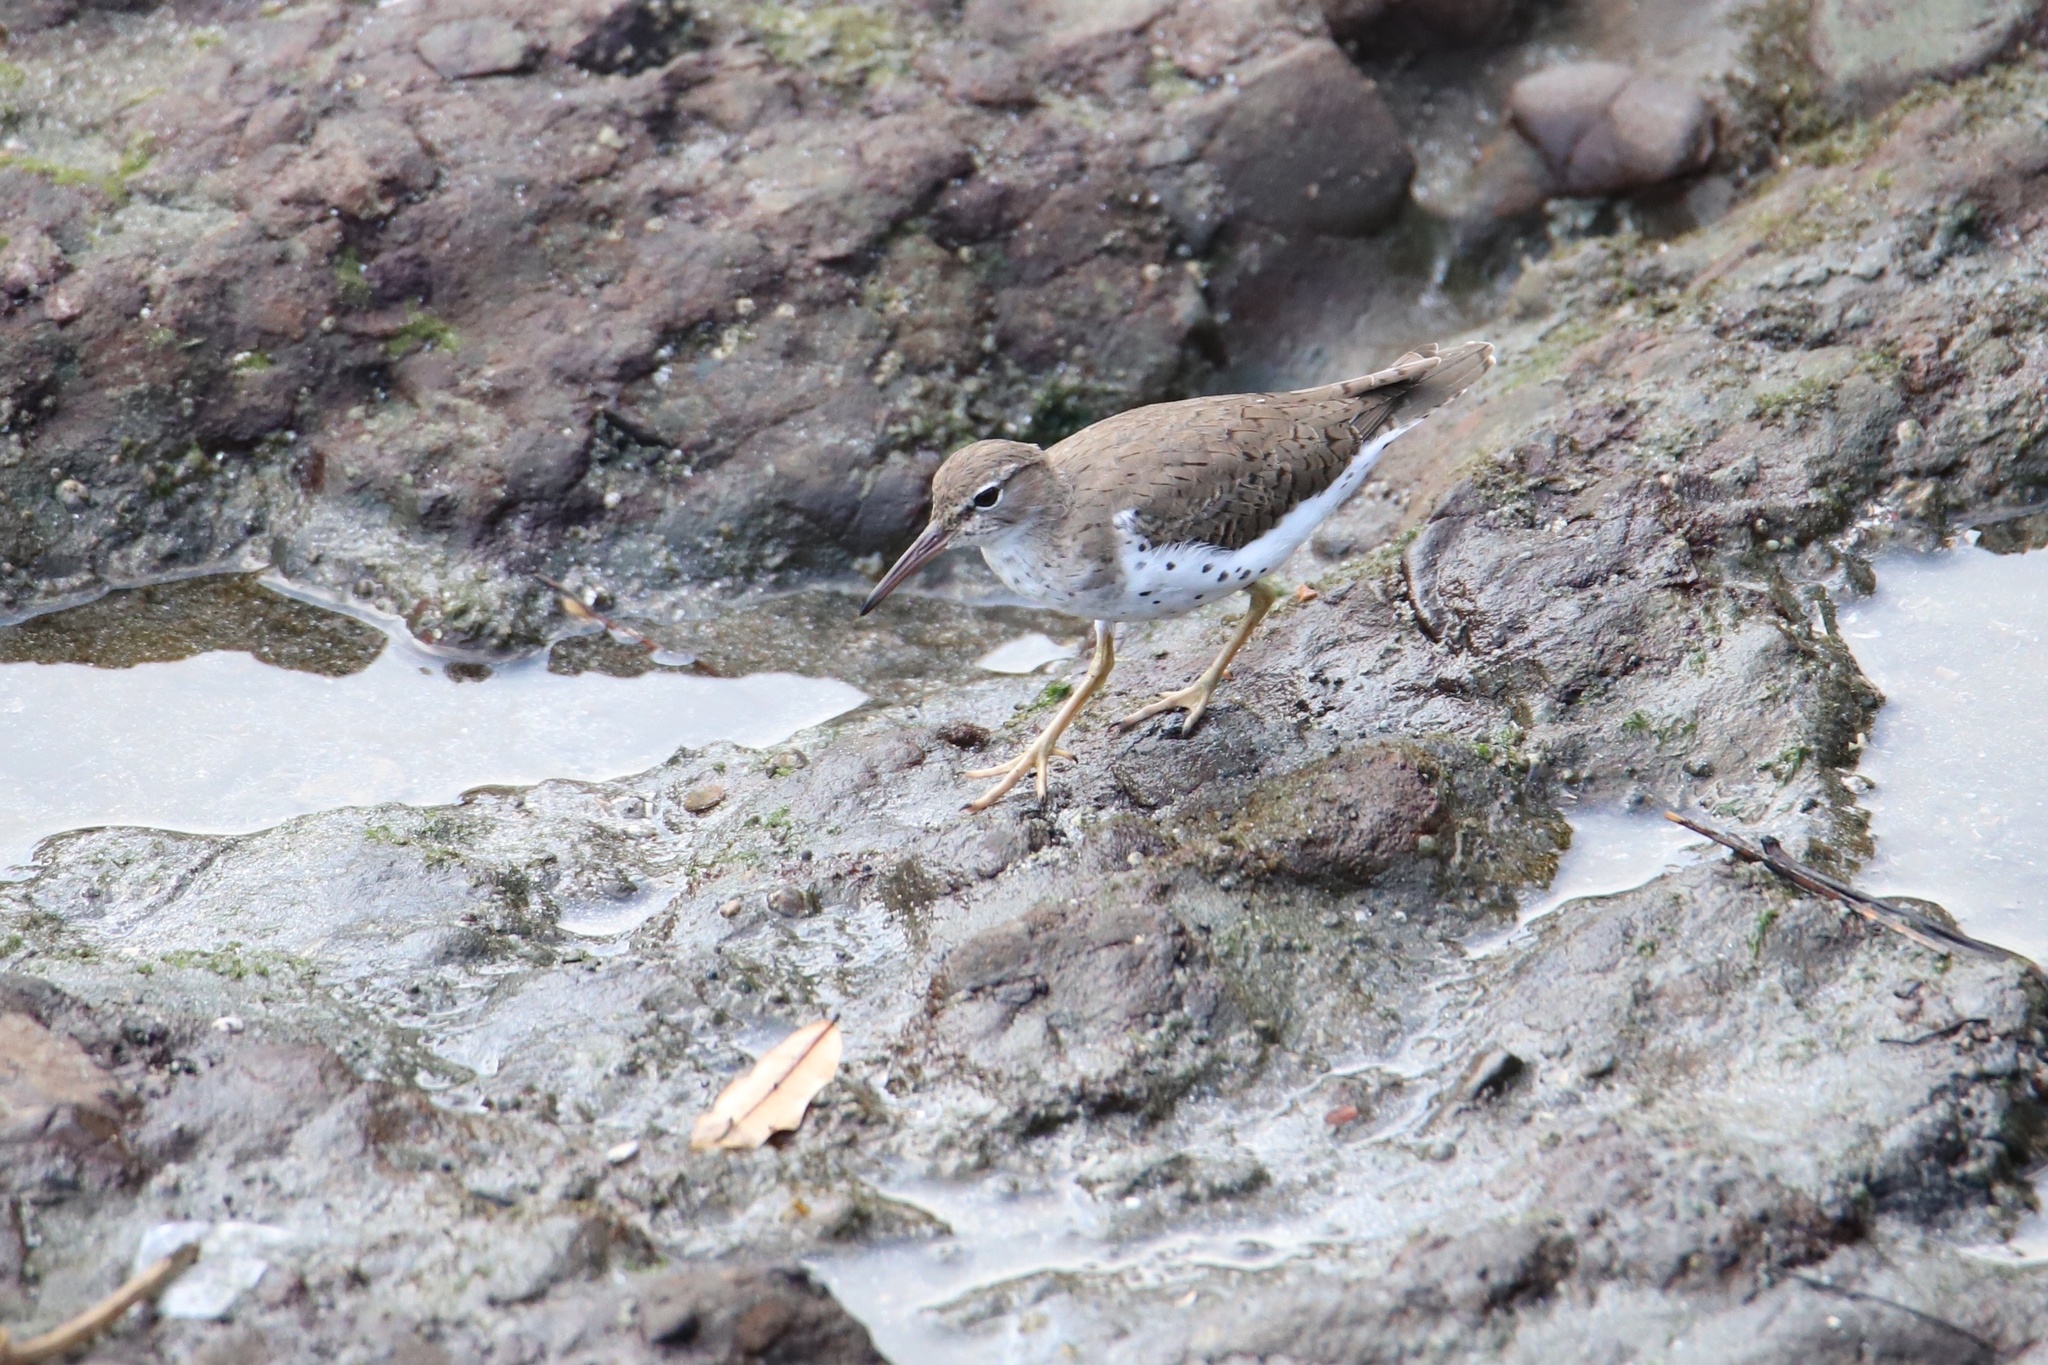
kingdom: Animalia
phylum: Chordata
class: Aves
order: Charadriiformes
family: Scolopacidae
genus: Actitis
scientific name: Actitis macularius
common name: Spotted sandpiper
